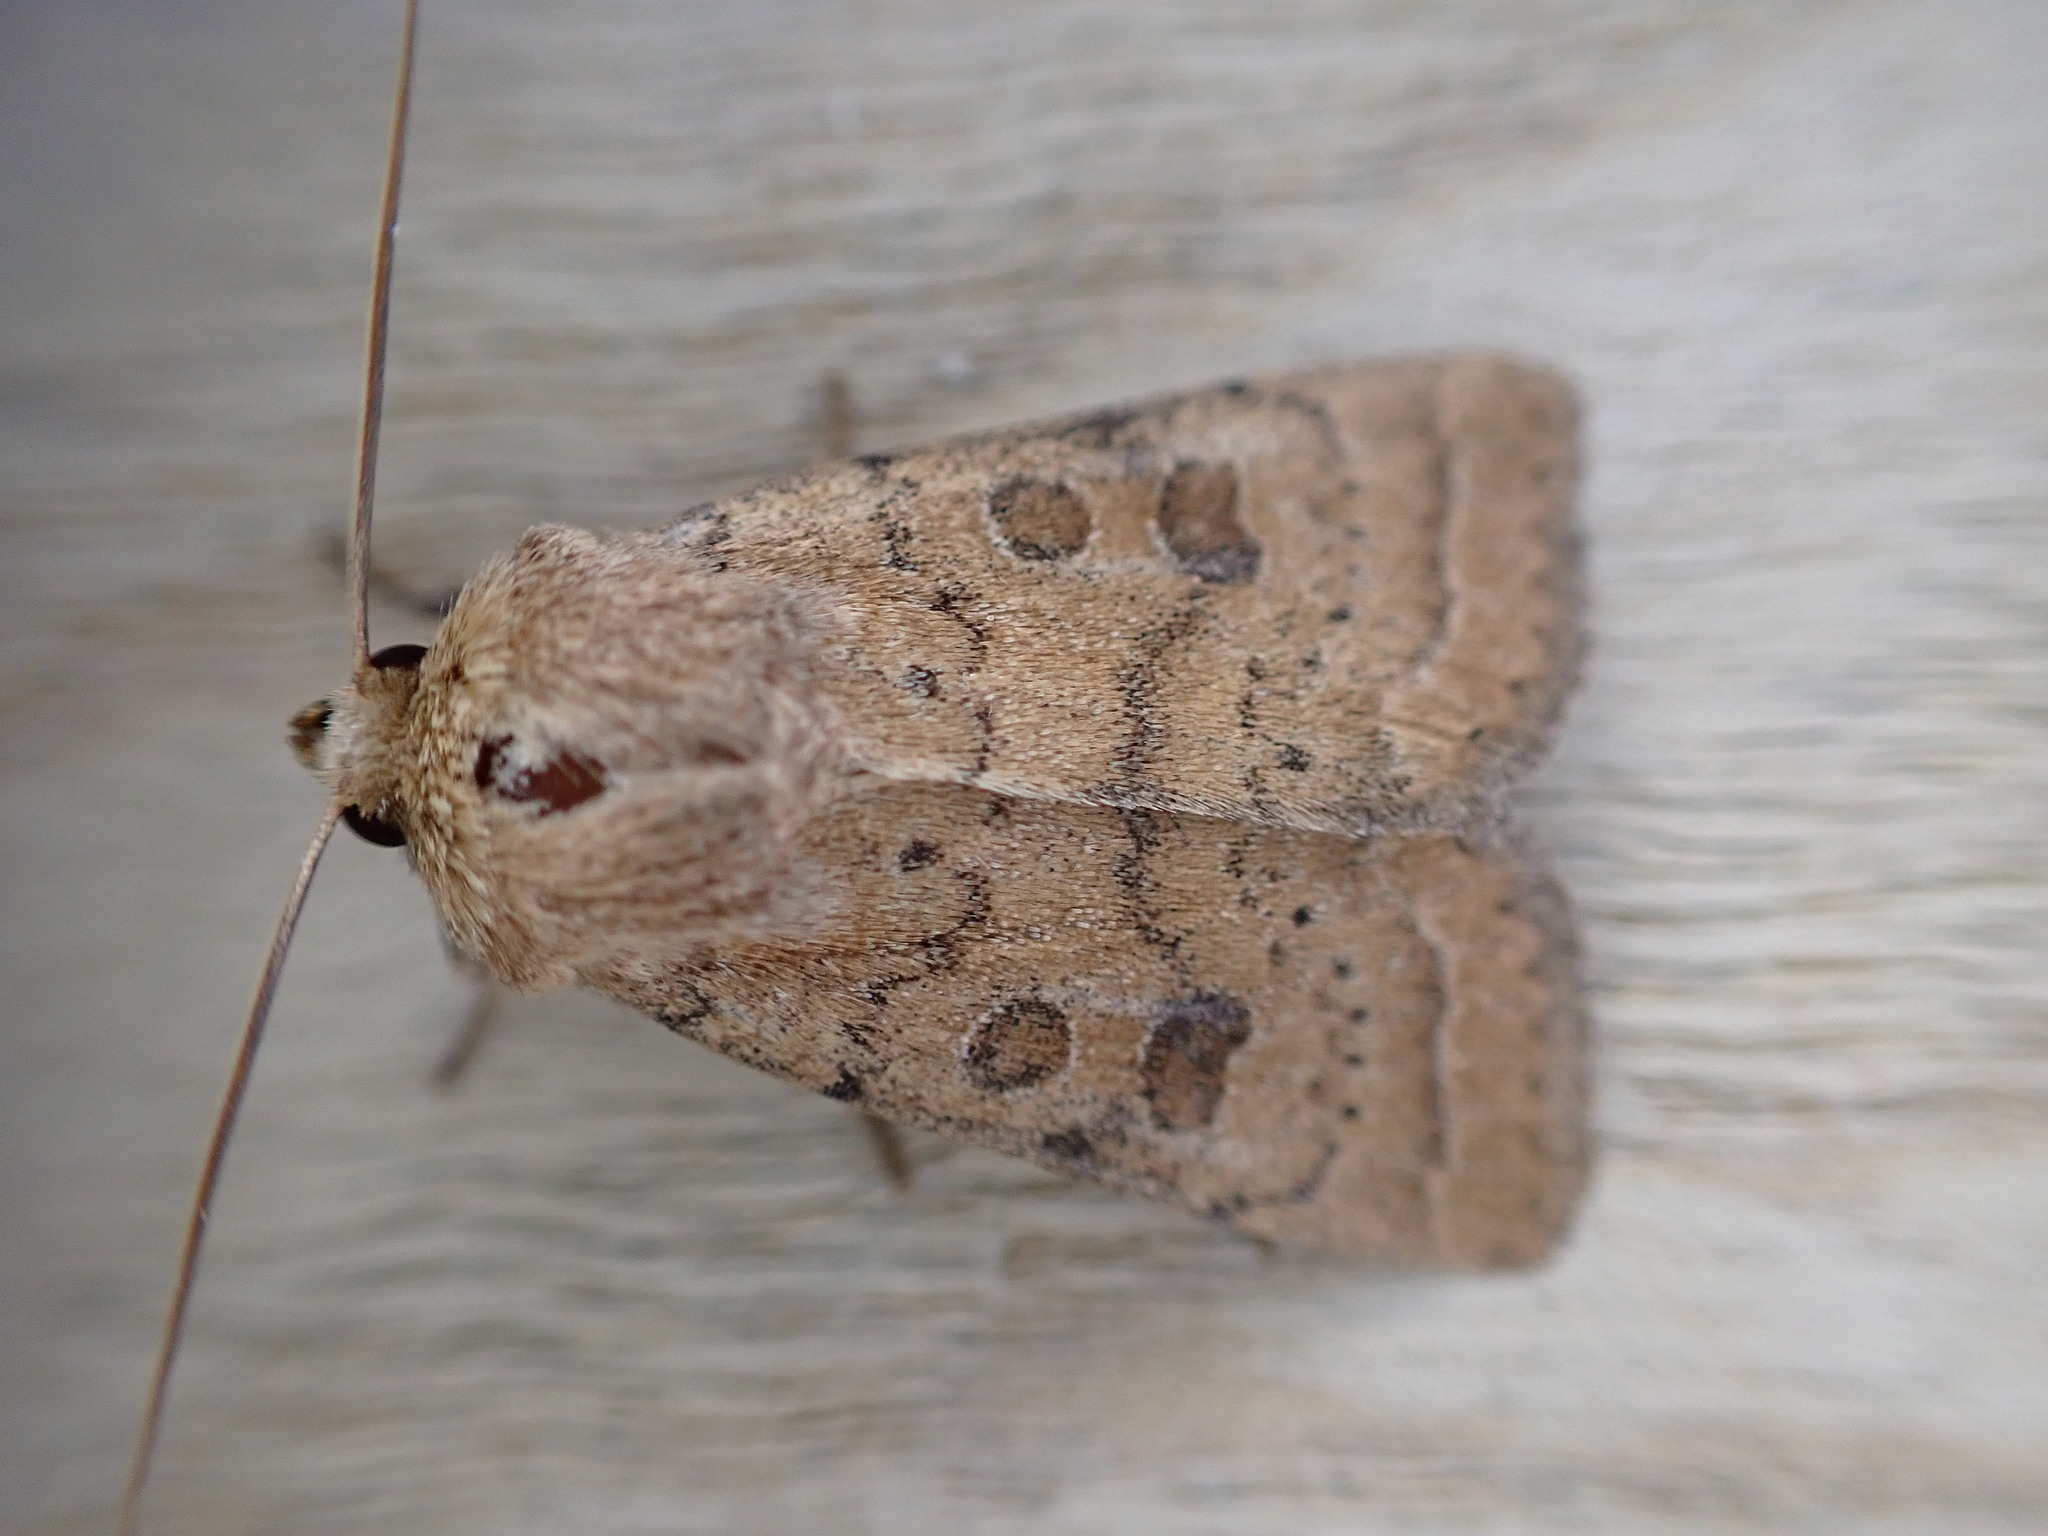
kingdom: Animalia
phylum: Arthropoda
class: Insecta
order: Lepidoptera
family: Noctuidae
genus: Hoplodrina
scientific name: Hoplodrina octogenaria
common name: Uncertain
